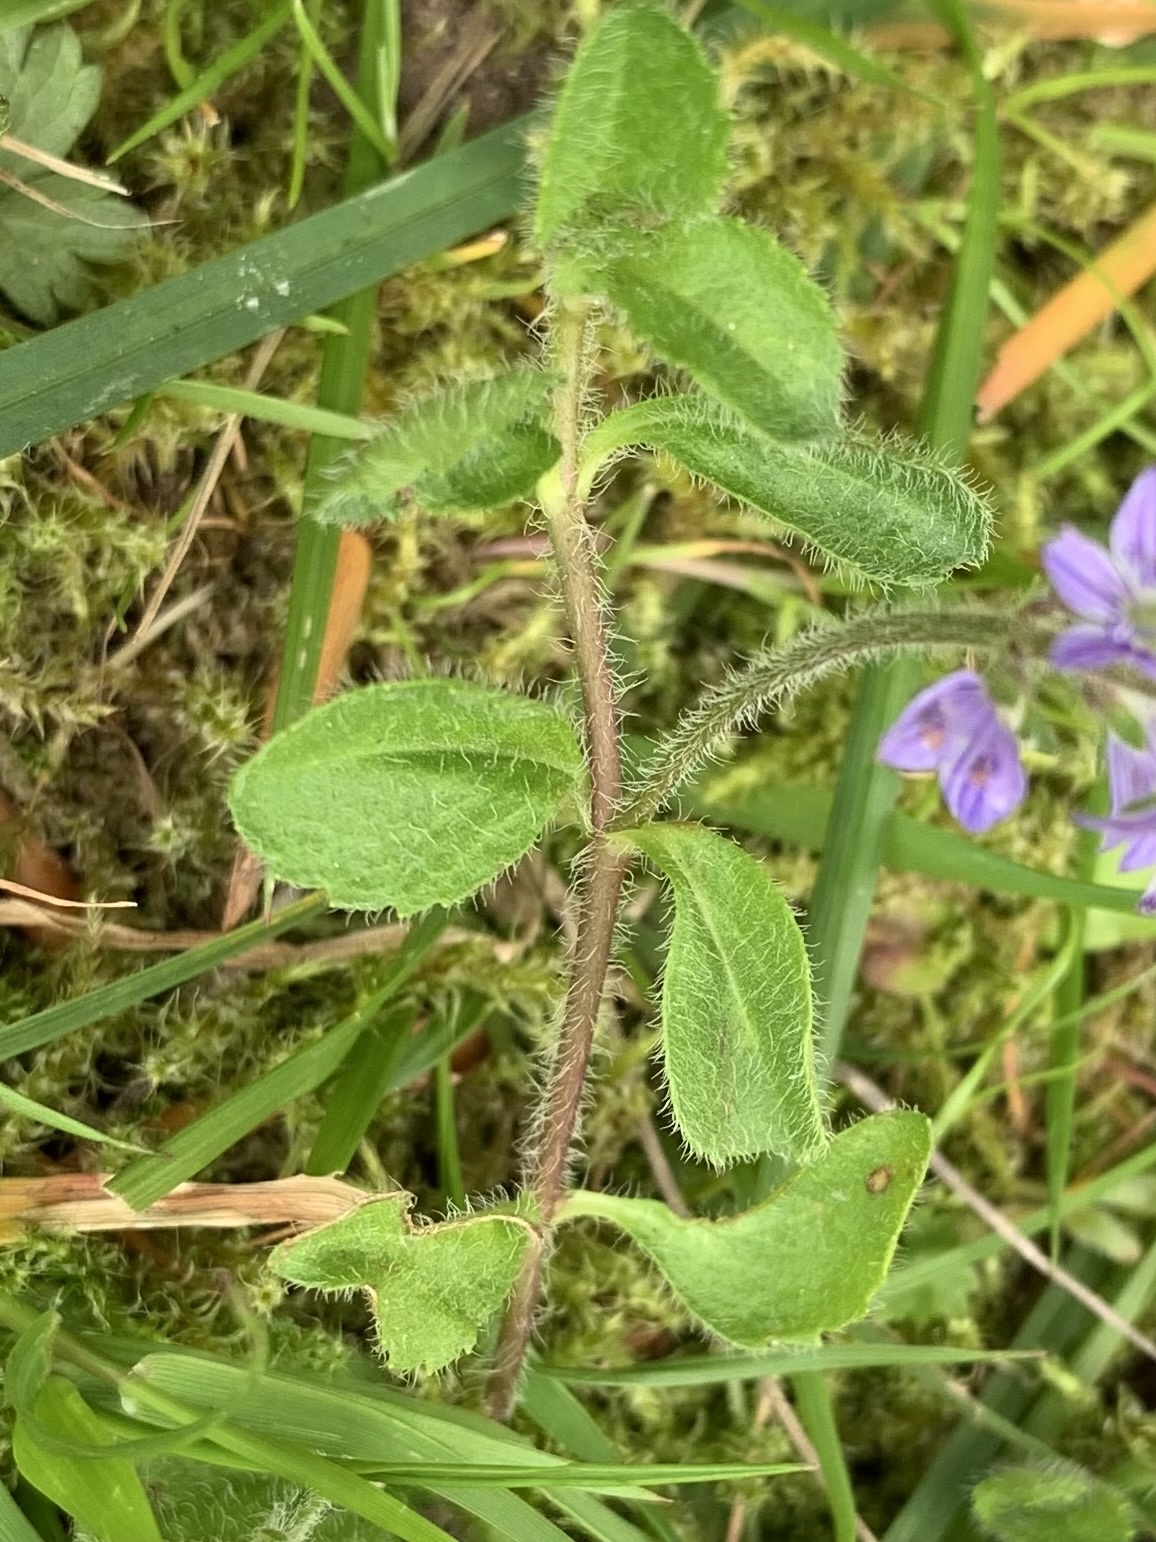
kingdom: Plantae
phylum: Tracheophyta
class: Magnoliopsida
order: Lamiales
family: Plantaginaceae
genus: Veronica
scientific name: Veronica officinalis
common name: Common speedwell
